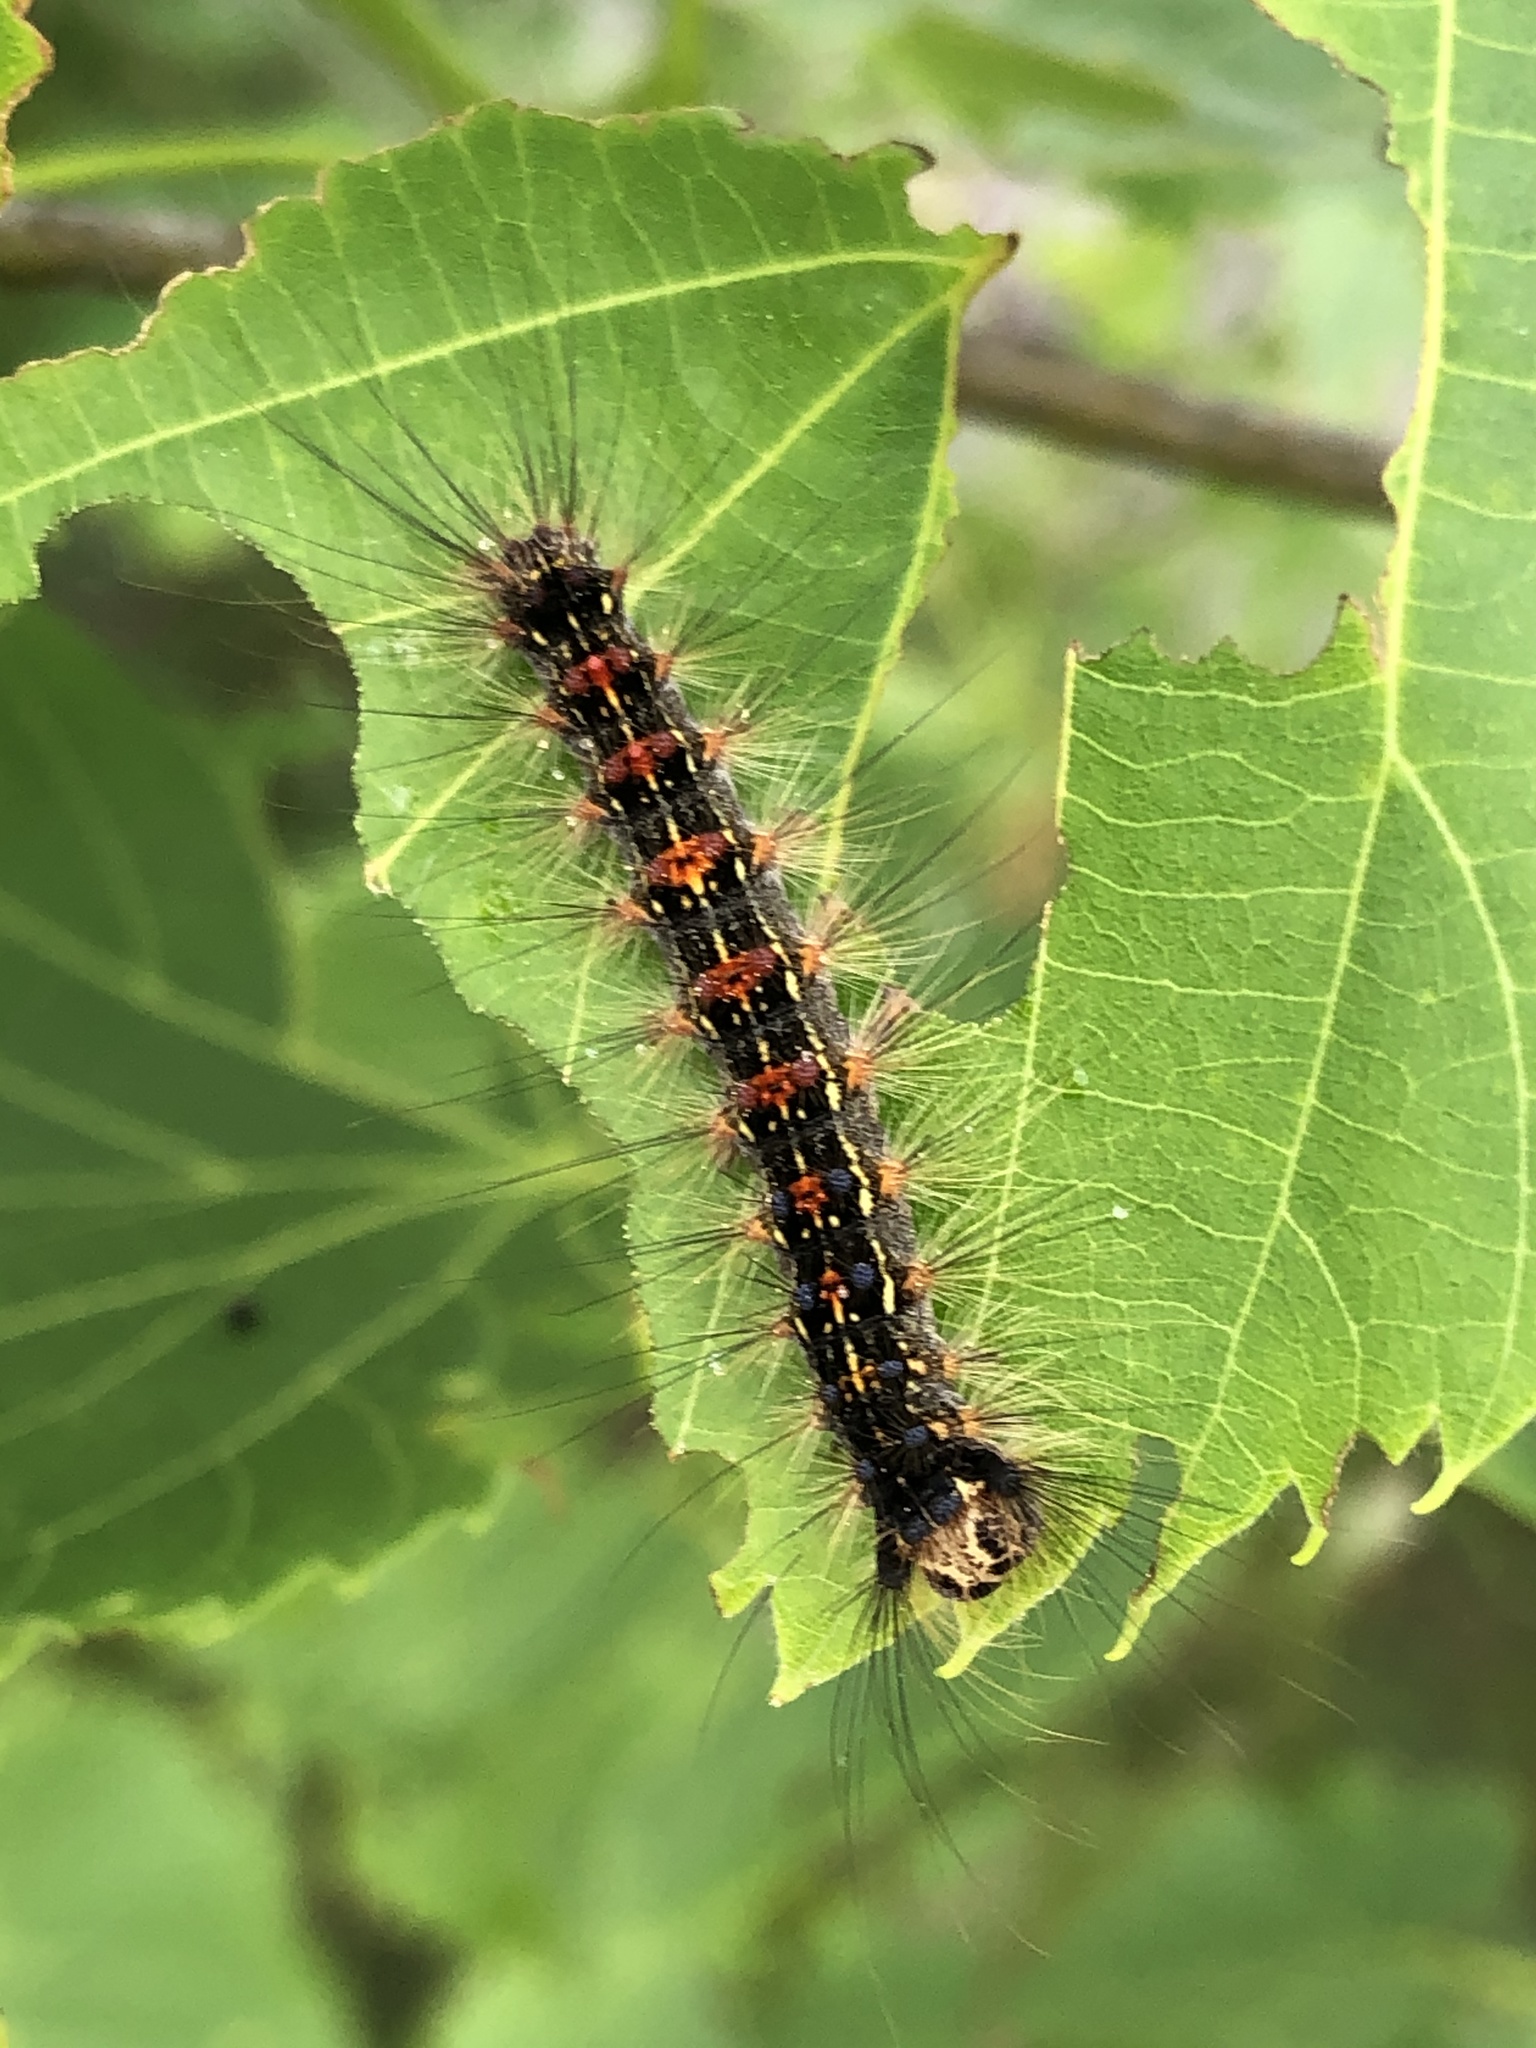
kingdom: Animalia
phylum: Arthropoda
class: Insecta
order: Lepidoptera
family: Erebidae
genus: Lymantria
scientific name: Lymantria dispar
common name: Gypsy moth
